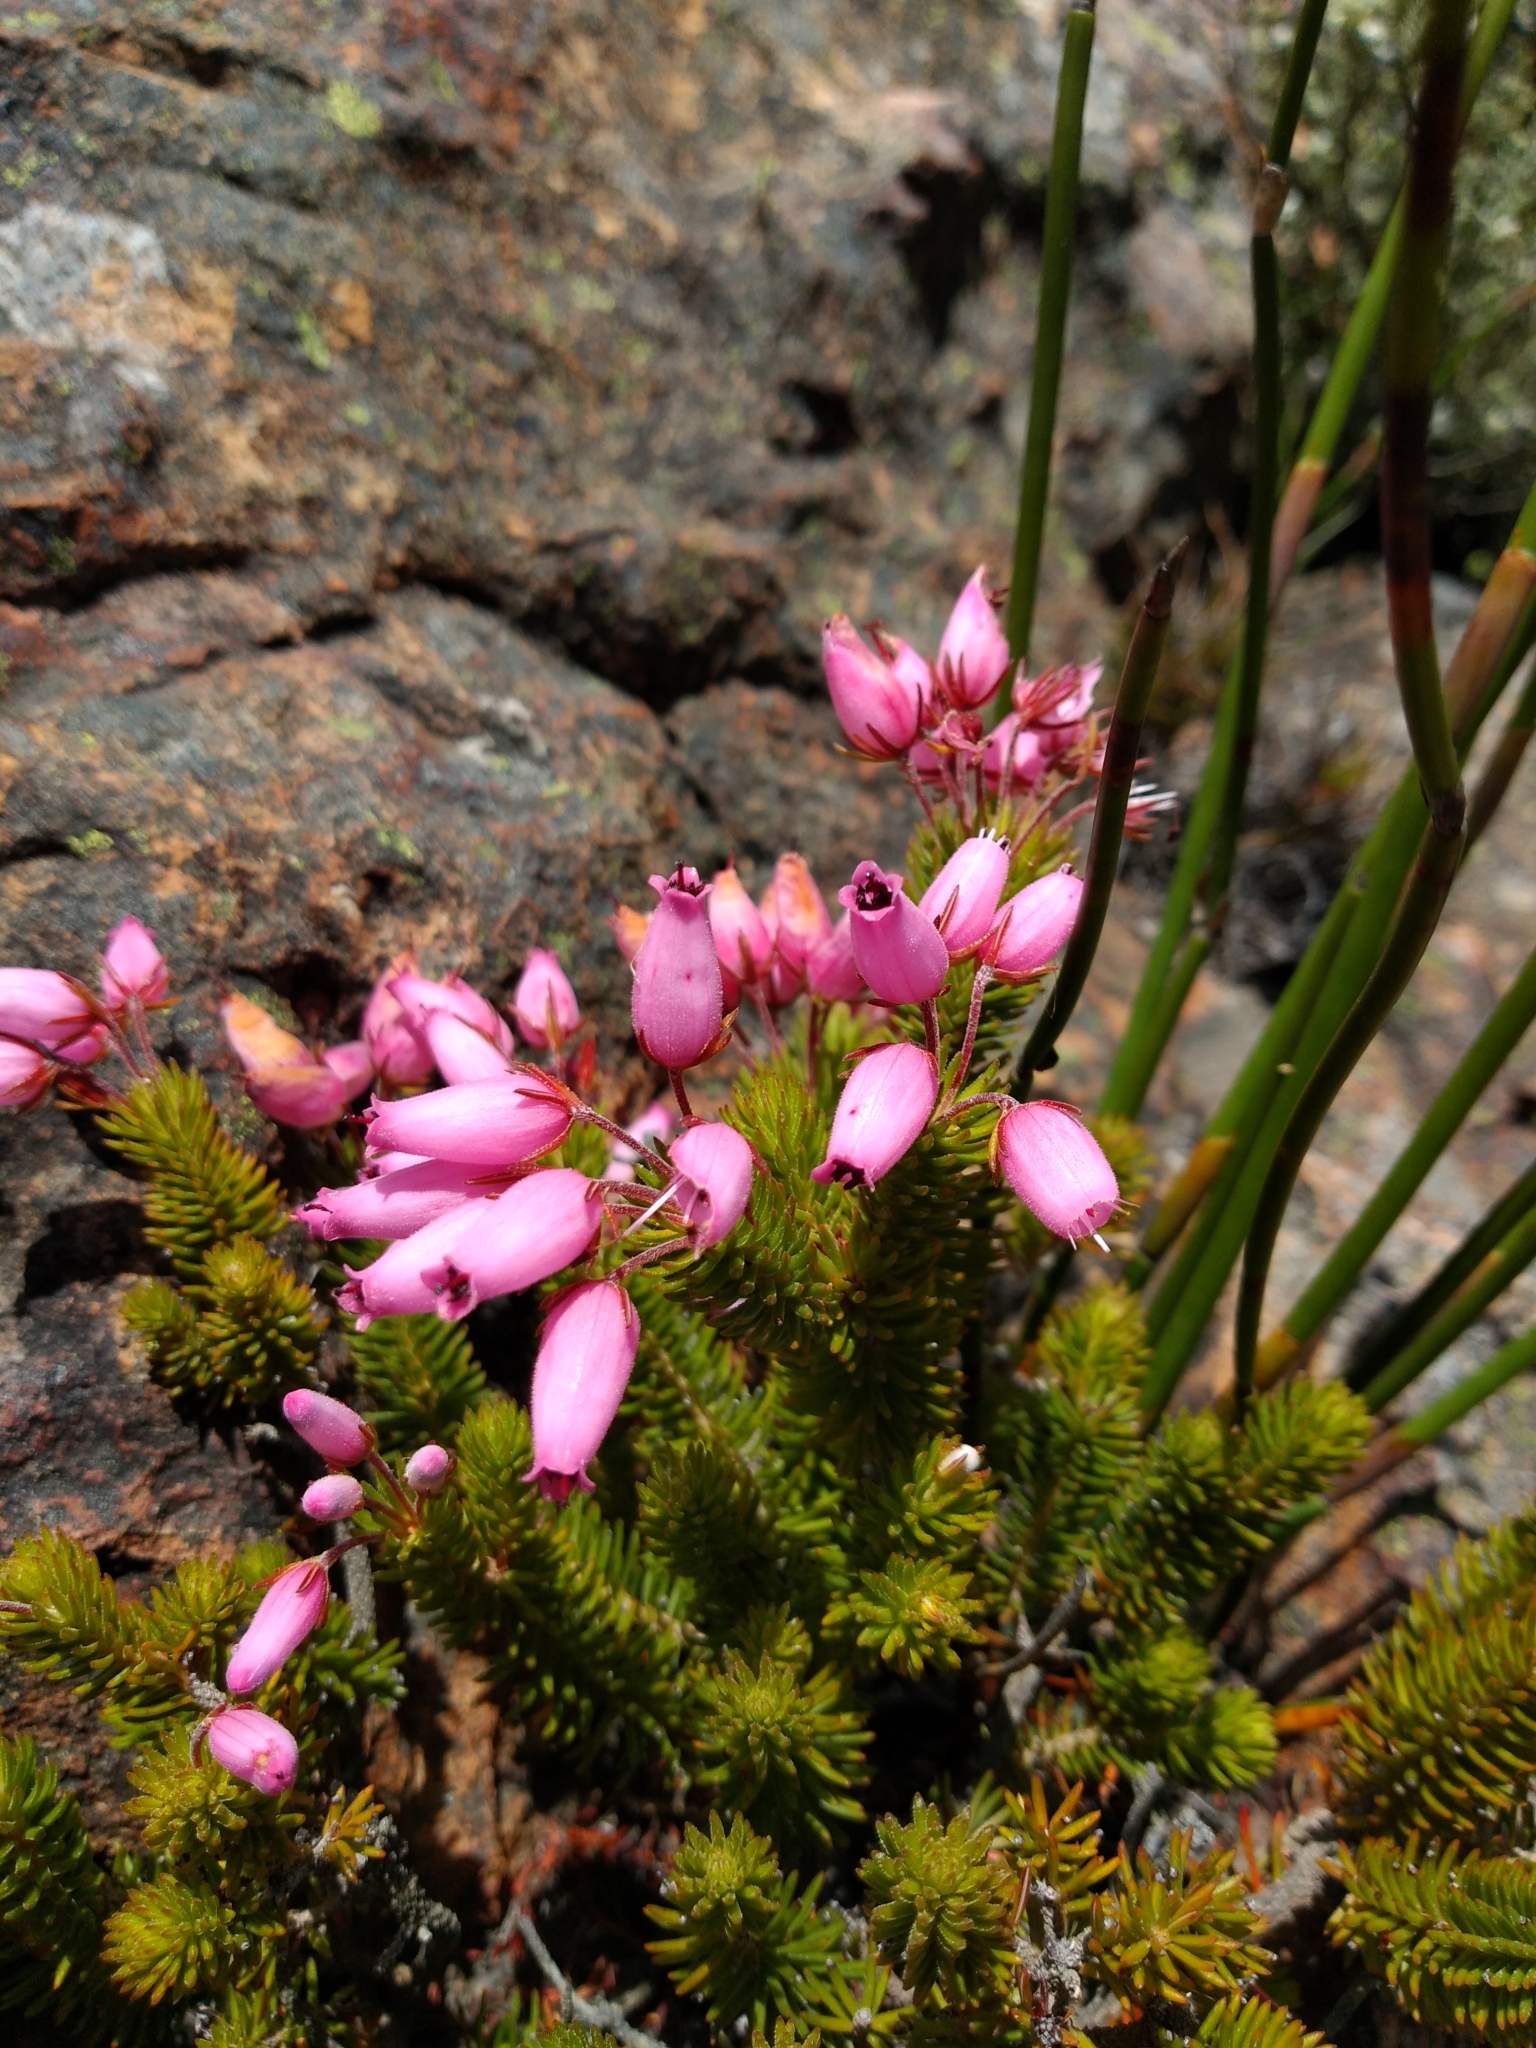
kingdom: Plantae
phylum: Tracheophyta
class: Magnoliopsida
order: Ericales
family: Ericaceae
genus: Erica
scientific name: Erica doliiformis
